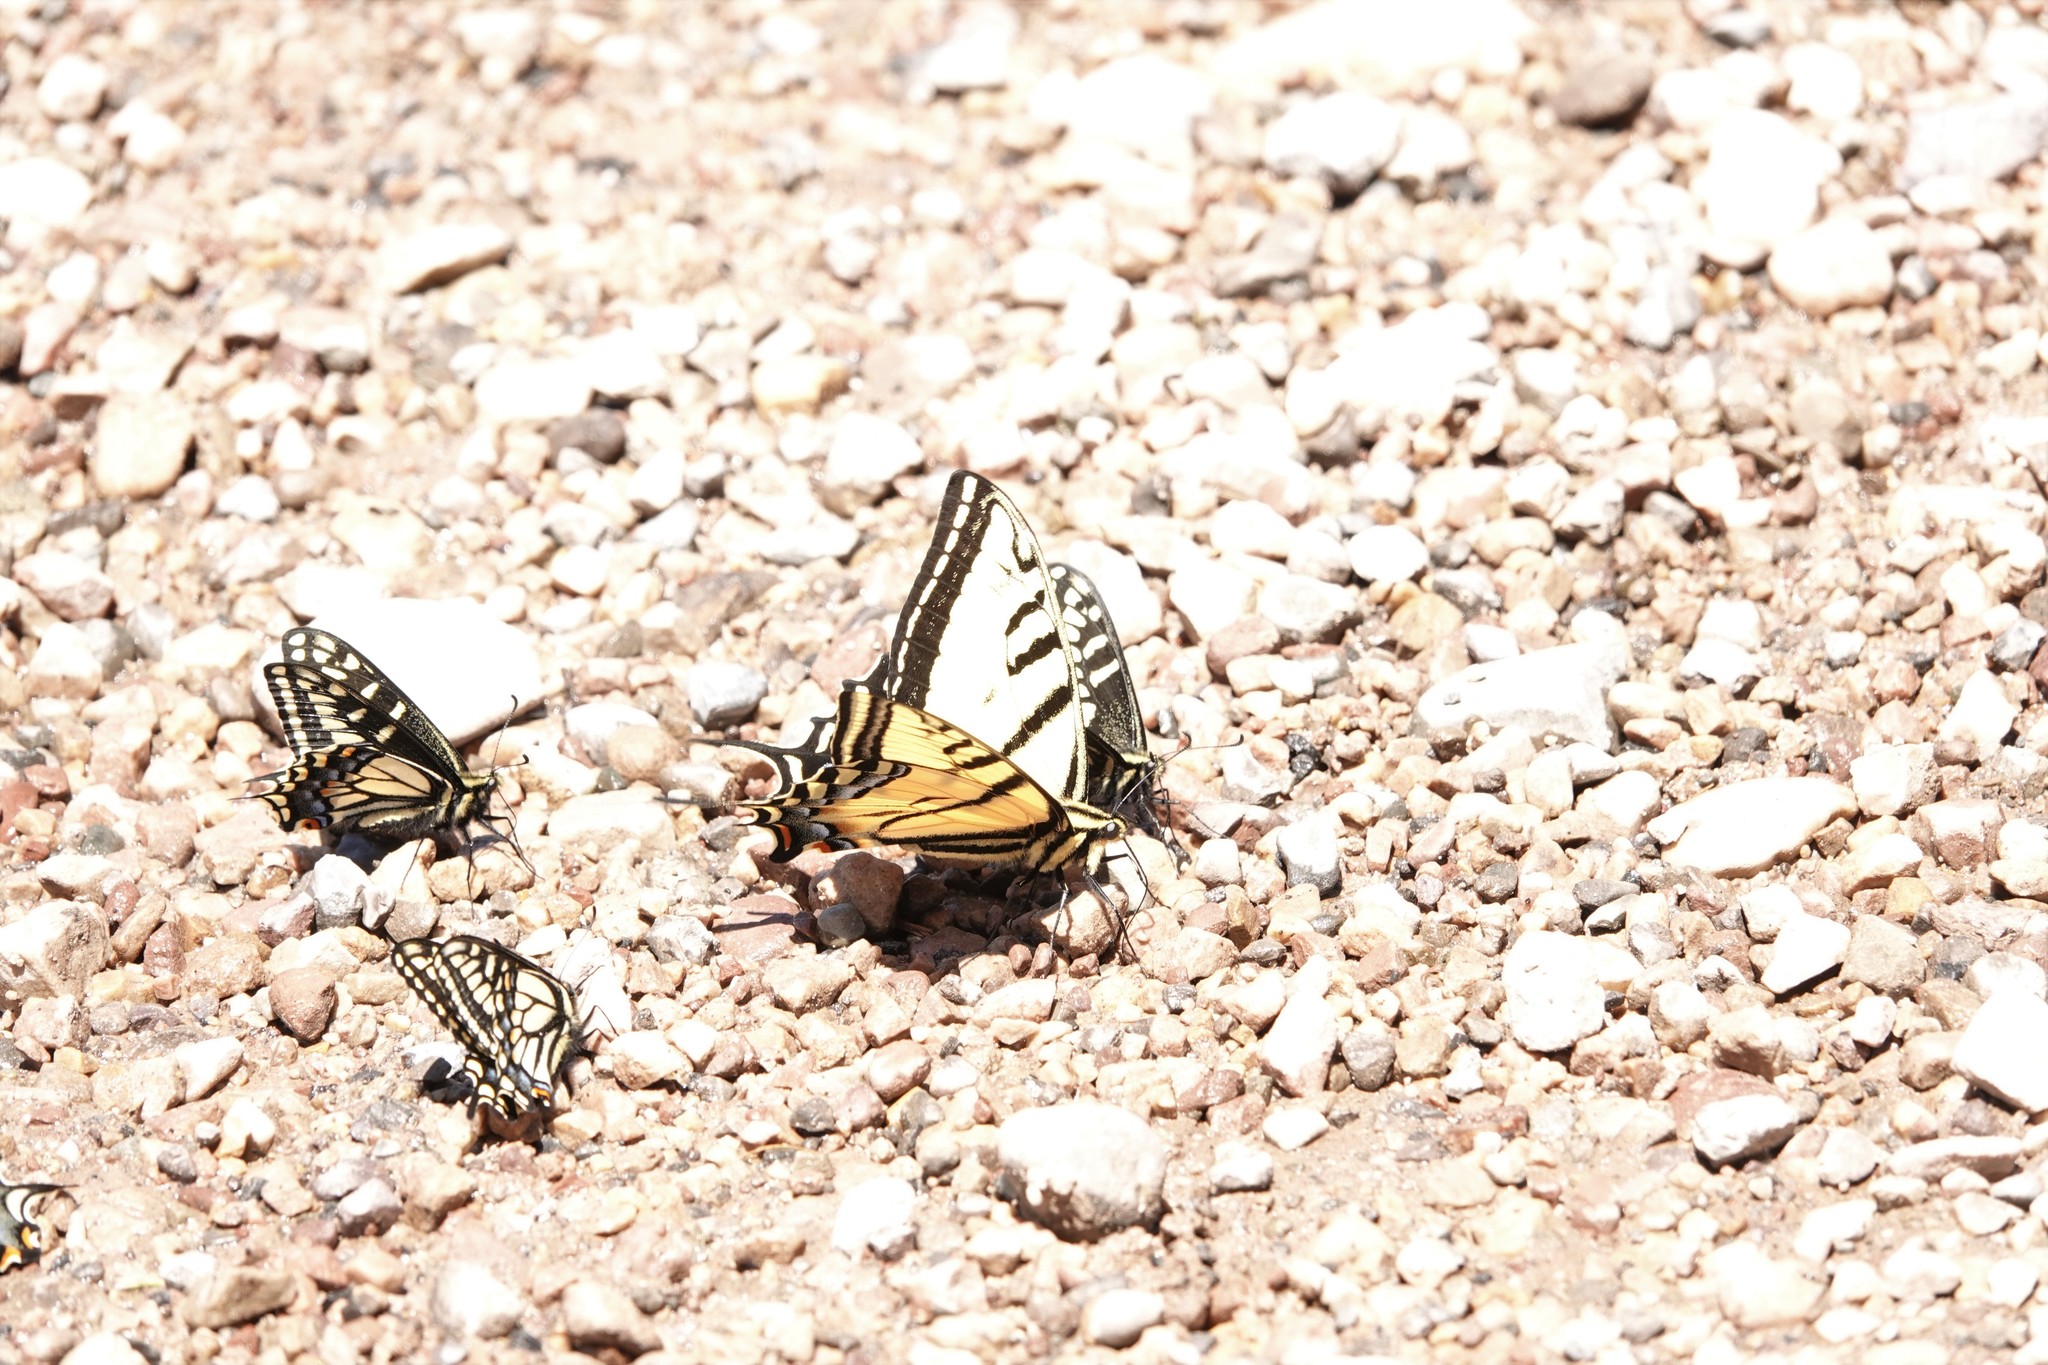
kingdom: Animalia
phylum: Arthropoda
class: Insecta
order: Lepidoptera
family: Papilionidae
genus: Papilio
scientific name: Papilio multicaudata
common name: Two-tailed tiger swallowtail
